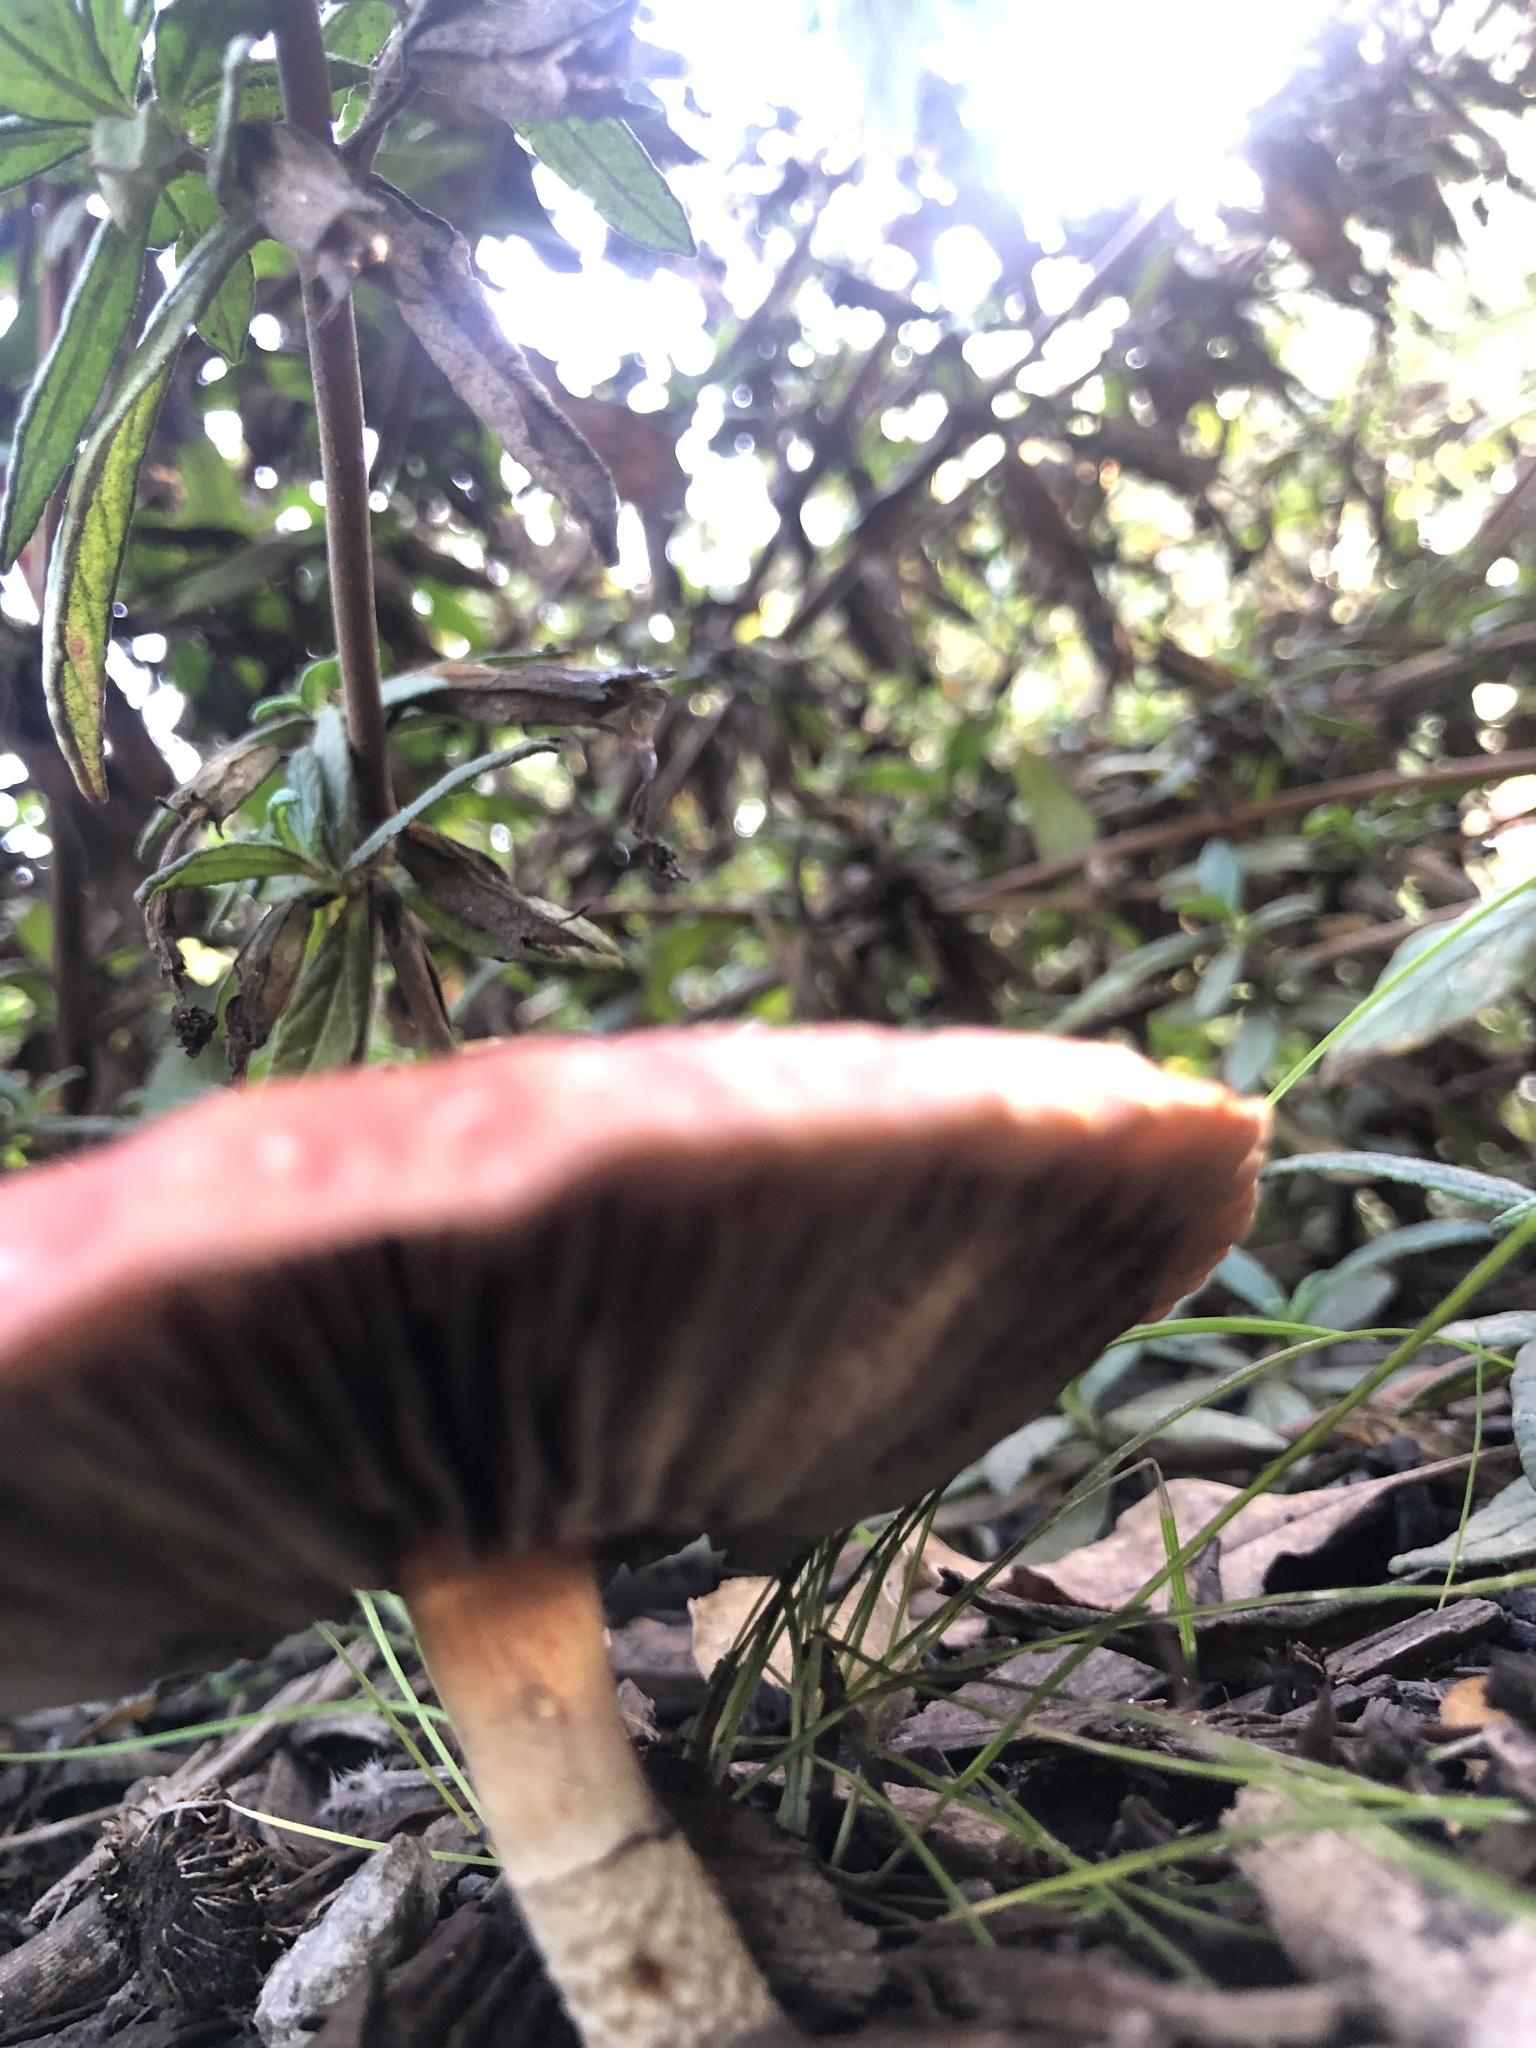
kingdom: Fungi
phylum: Basidiomycota
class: Agaricomycetes
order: Agaricales
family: Strophariaceae
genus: Leratiomyces
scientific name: Leratiomyces ceres
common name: Redlead roundhead
